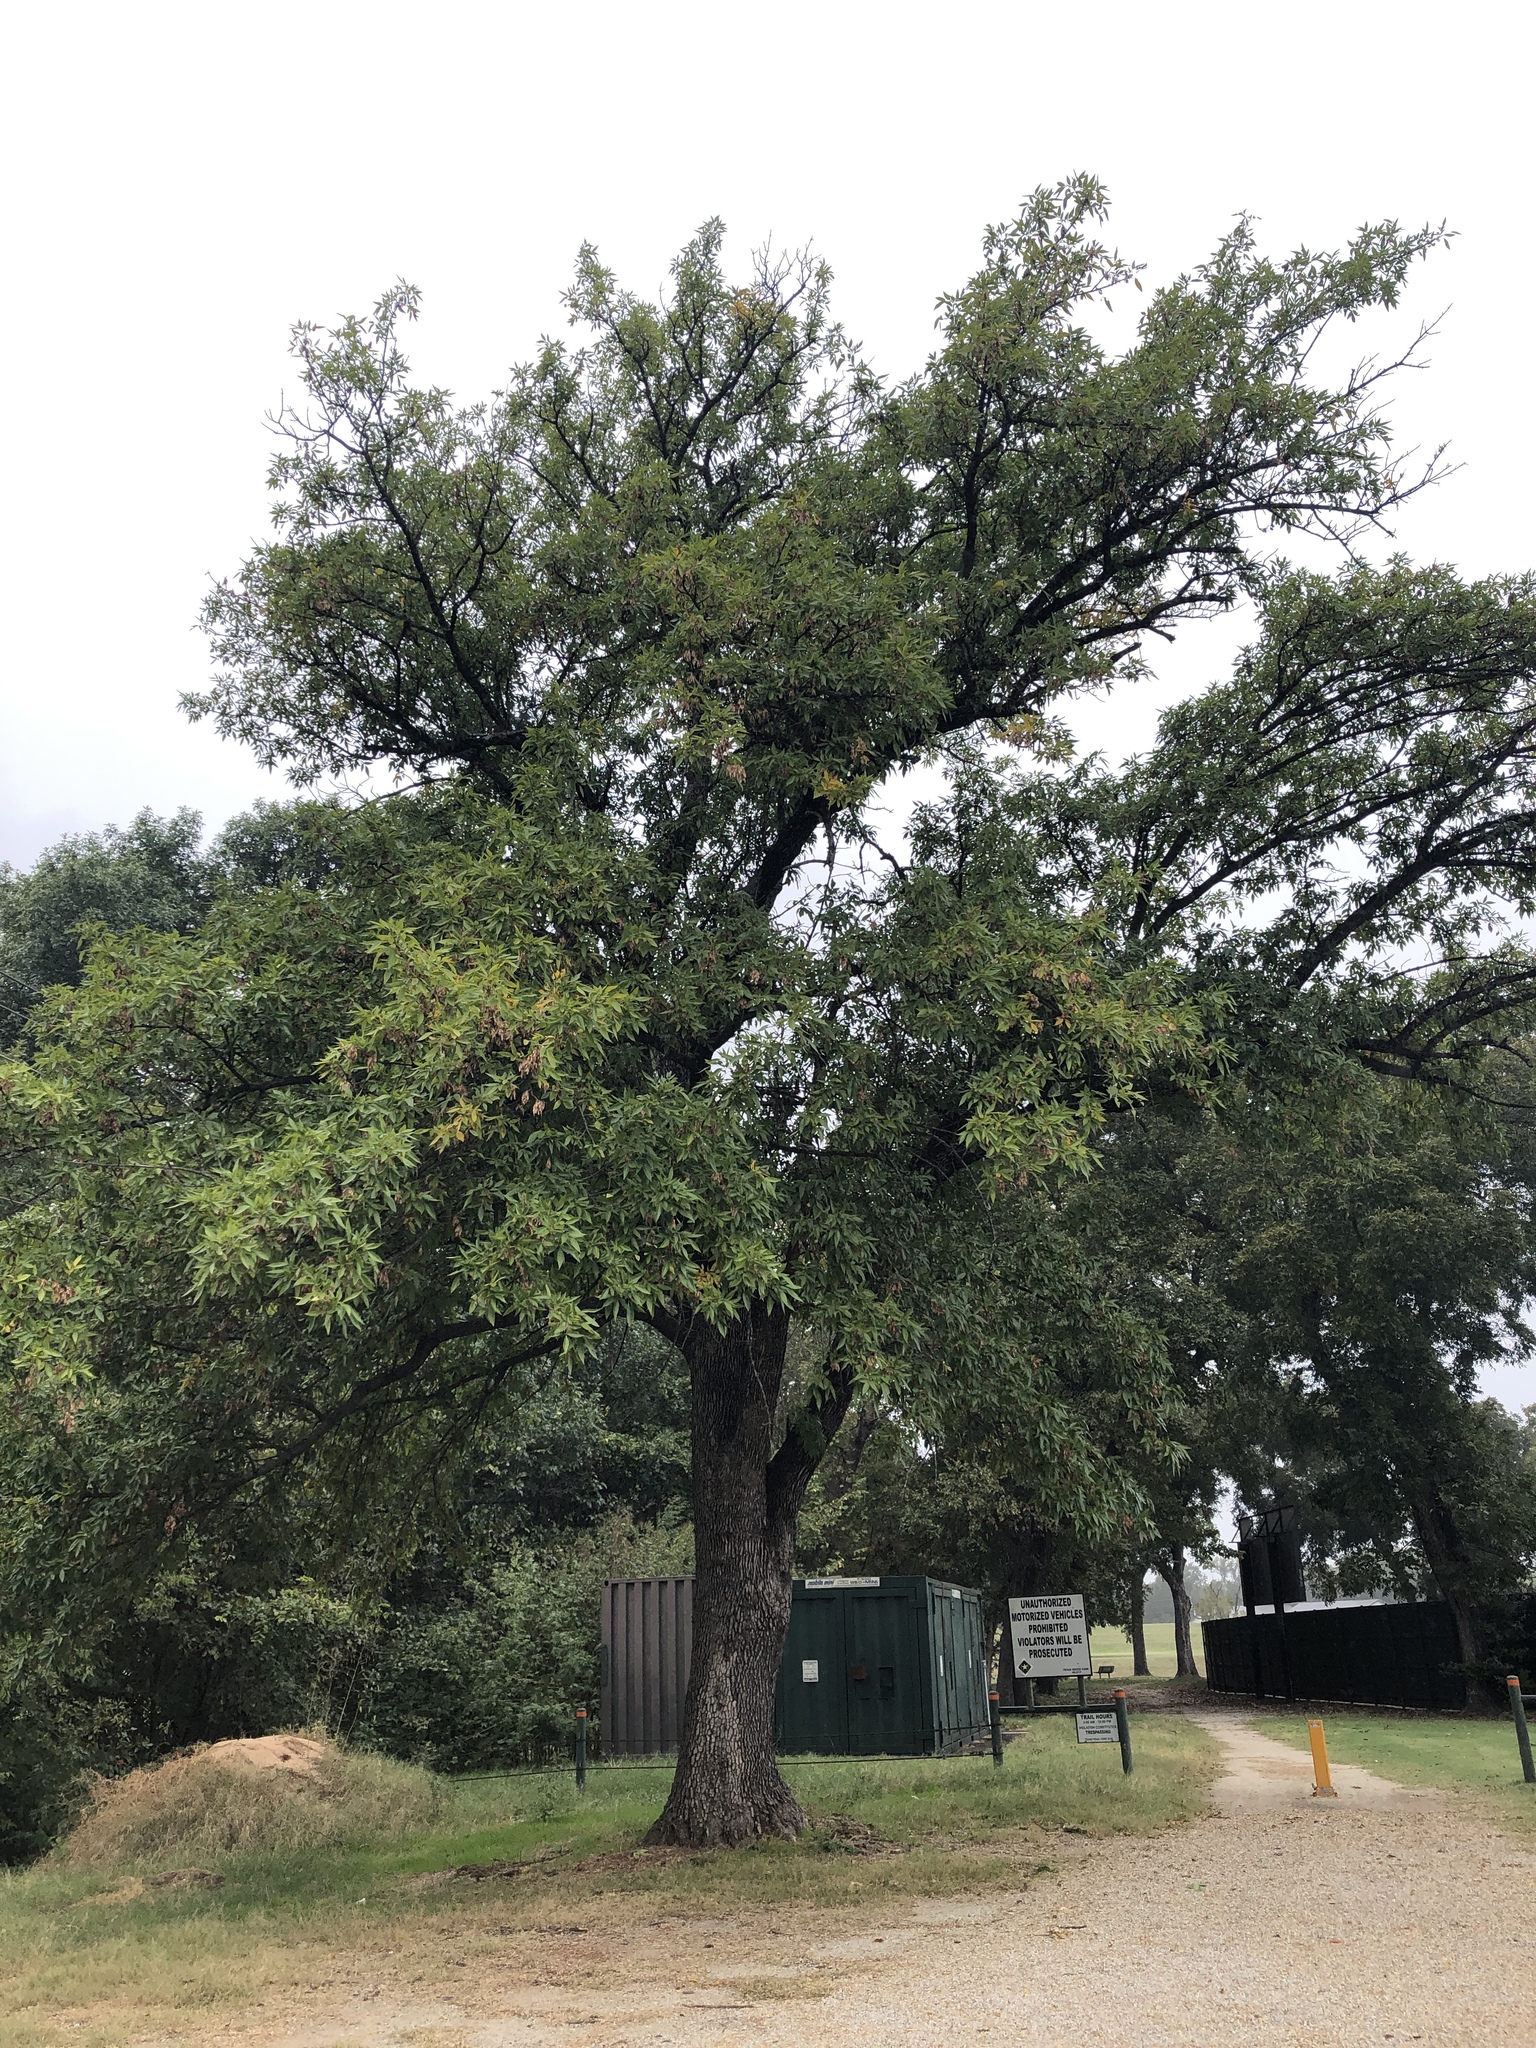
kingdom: Plantae
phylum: Tracheophyta
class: Magnoliopsida
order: Lamiales
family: Oleaceae
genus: Fraxinus
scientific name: Fraxinus pennsylvanica
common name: Green ash
